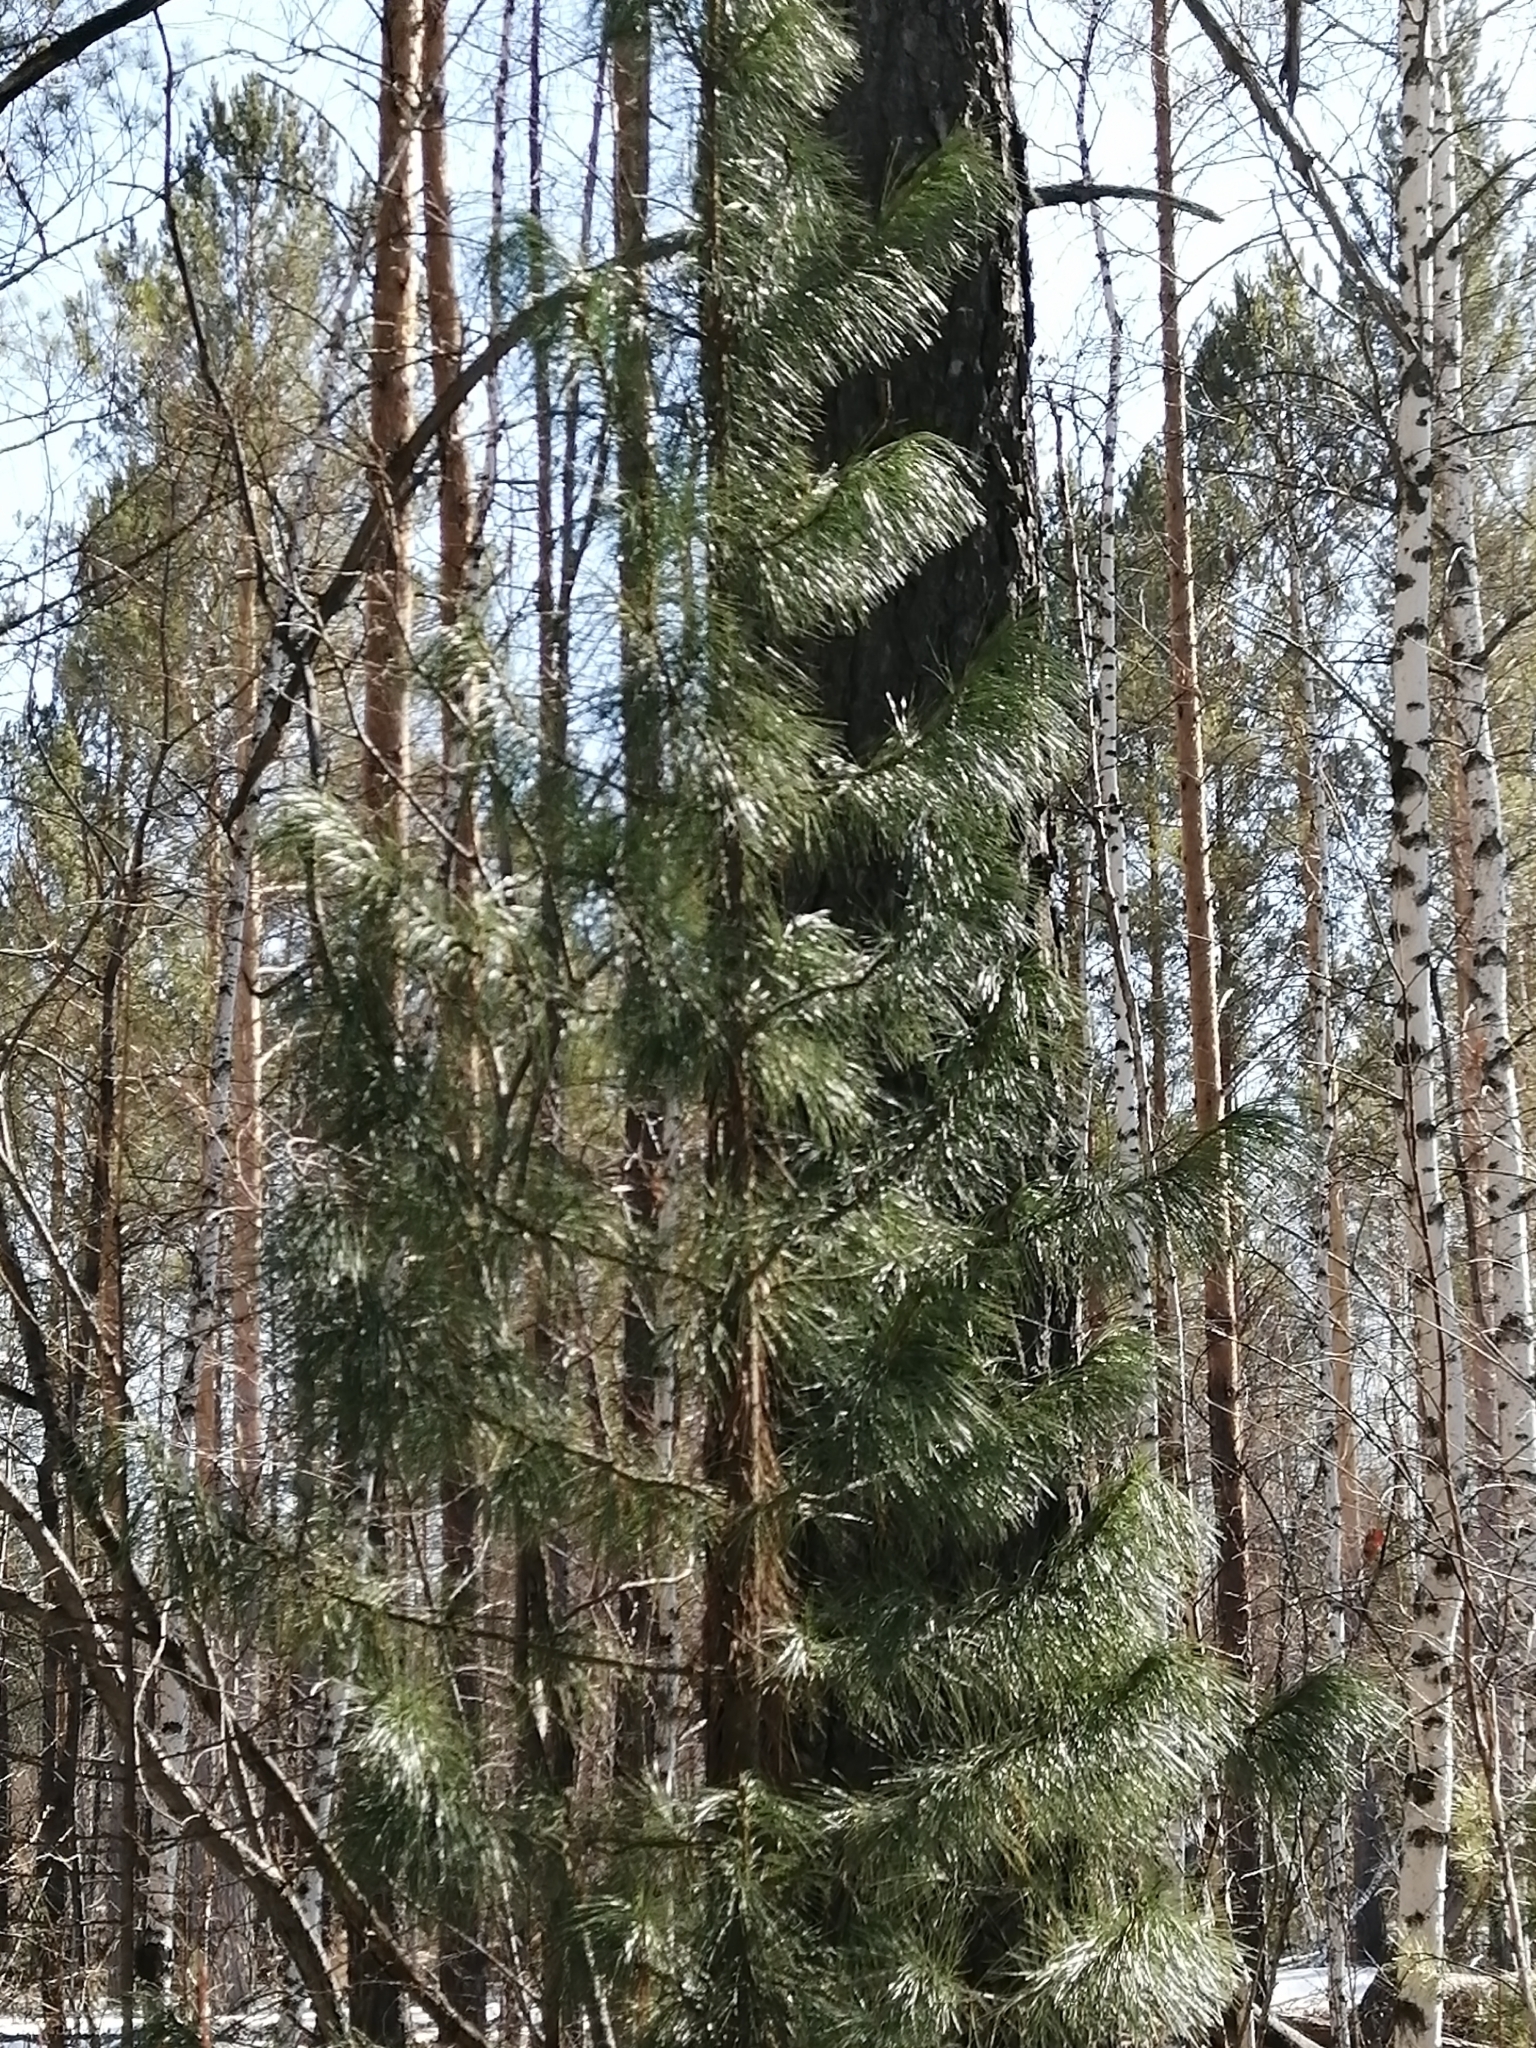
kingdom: Plantae
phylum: Tracheophyta
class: Pinopsida
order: Pinales
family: Pinaceae
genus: Pinus
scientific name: Pinus sibirica
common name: Siberian pine
